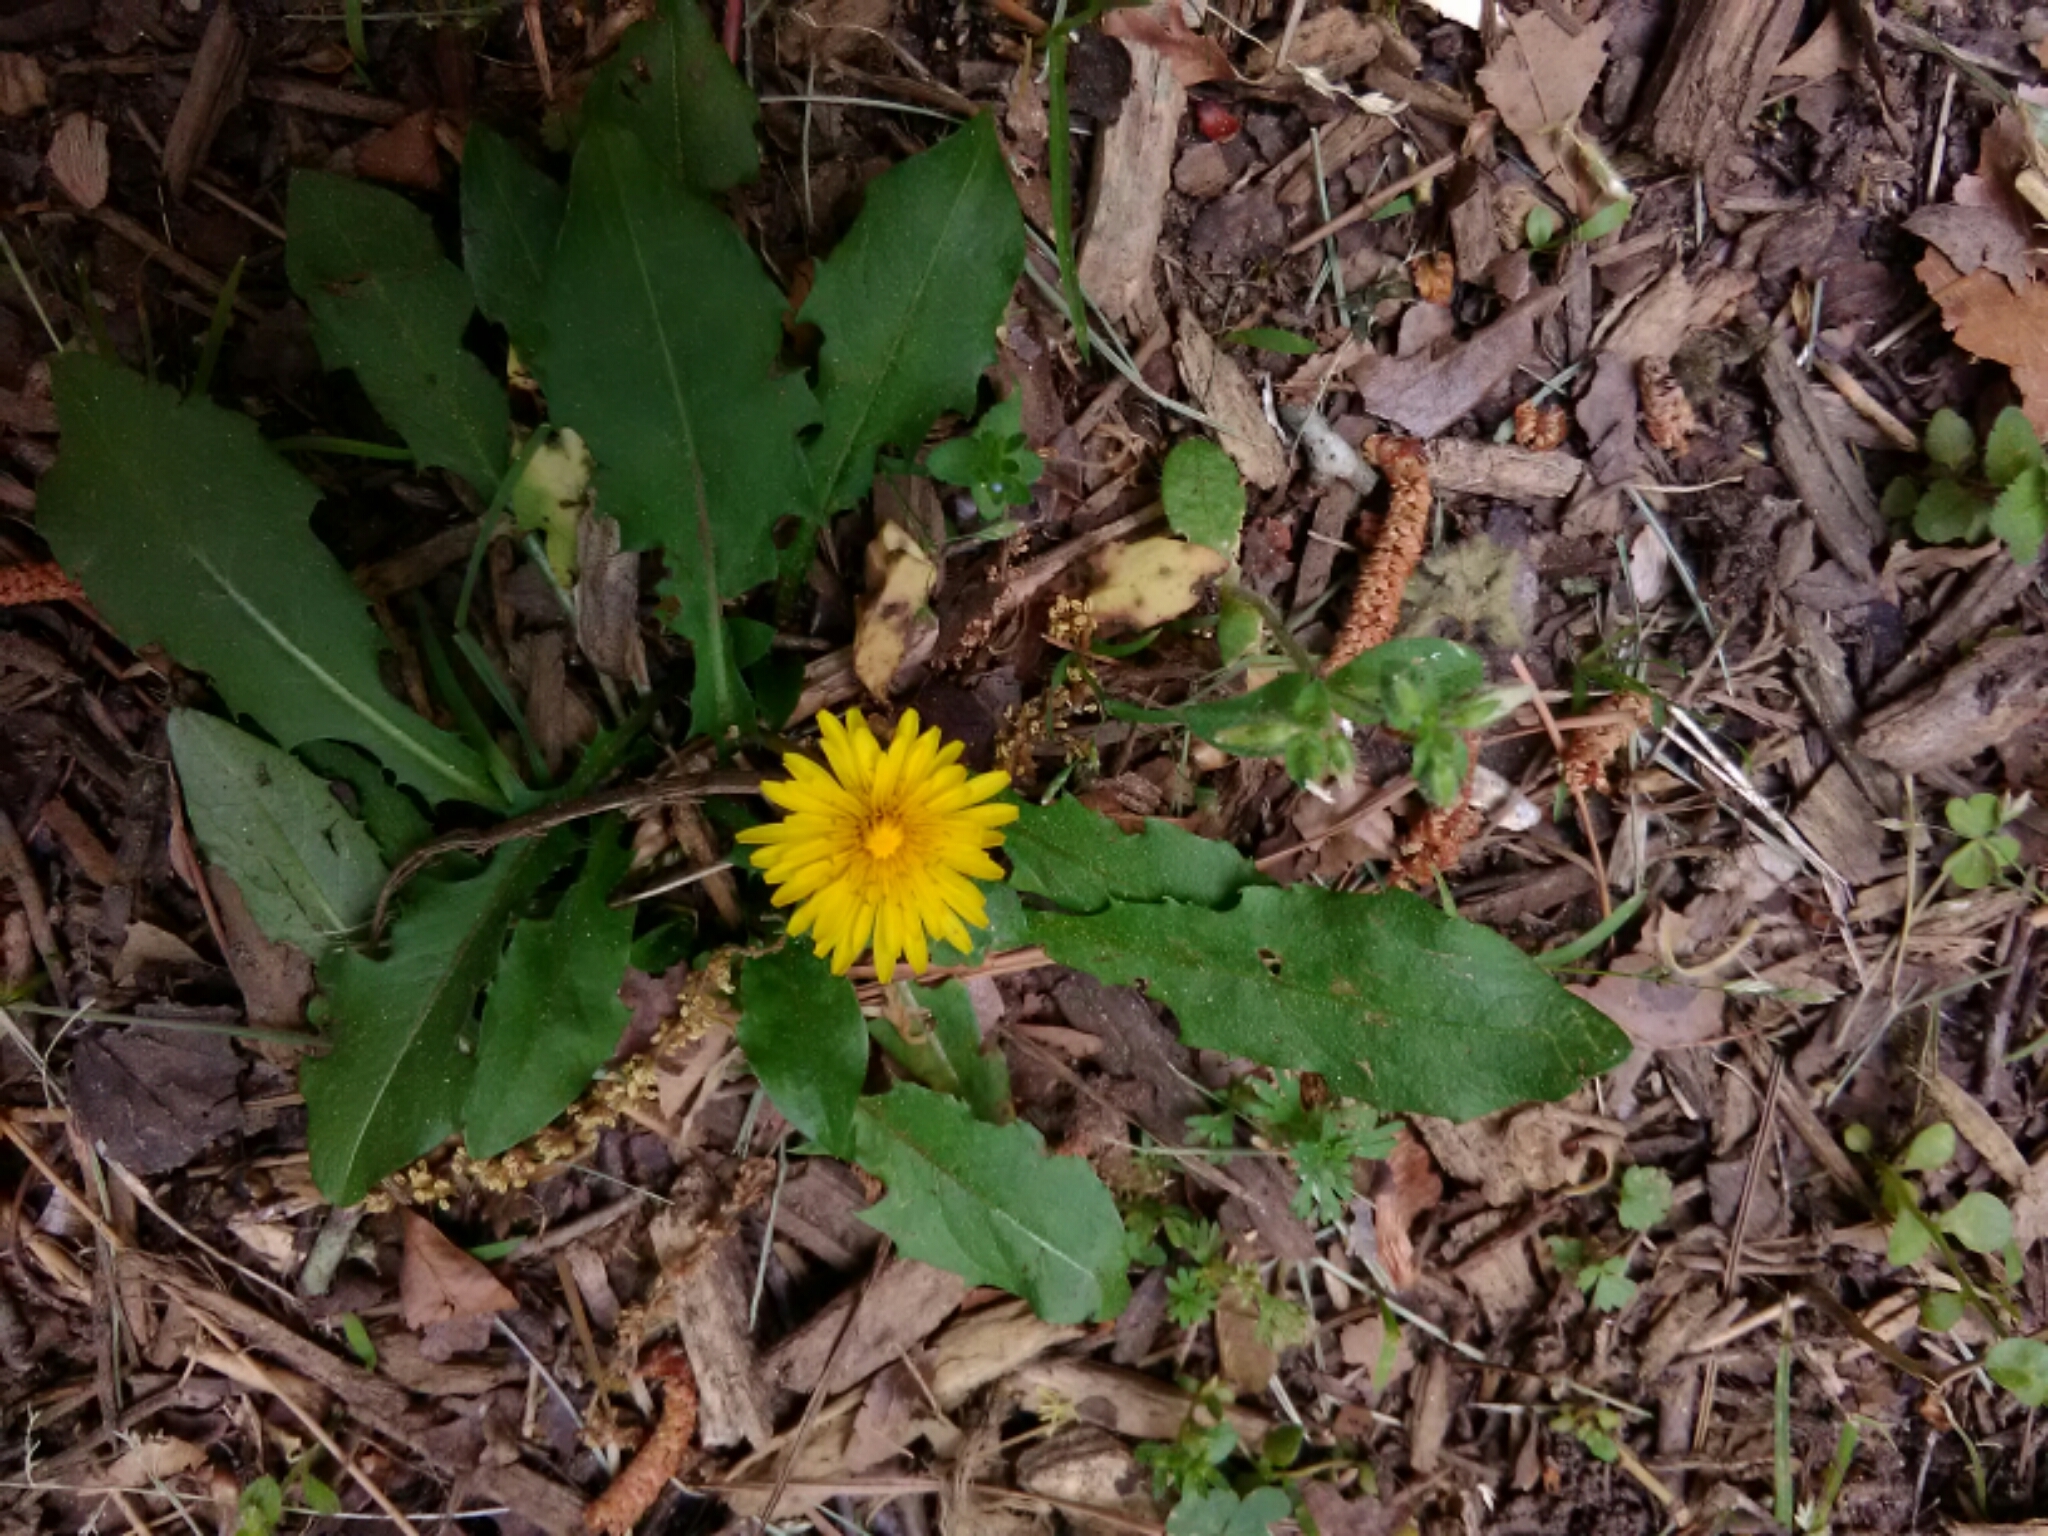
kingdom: Plantae
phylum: Tracheophyta
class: Magnoliopsida
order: Asterales
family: Asteraceae
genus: Taraxacum
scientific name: Taraxacum officinale
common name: Common dandelion
